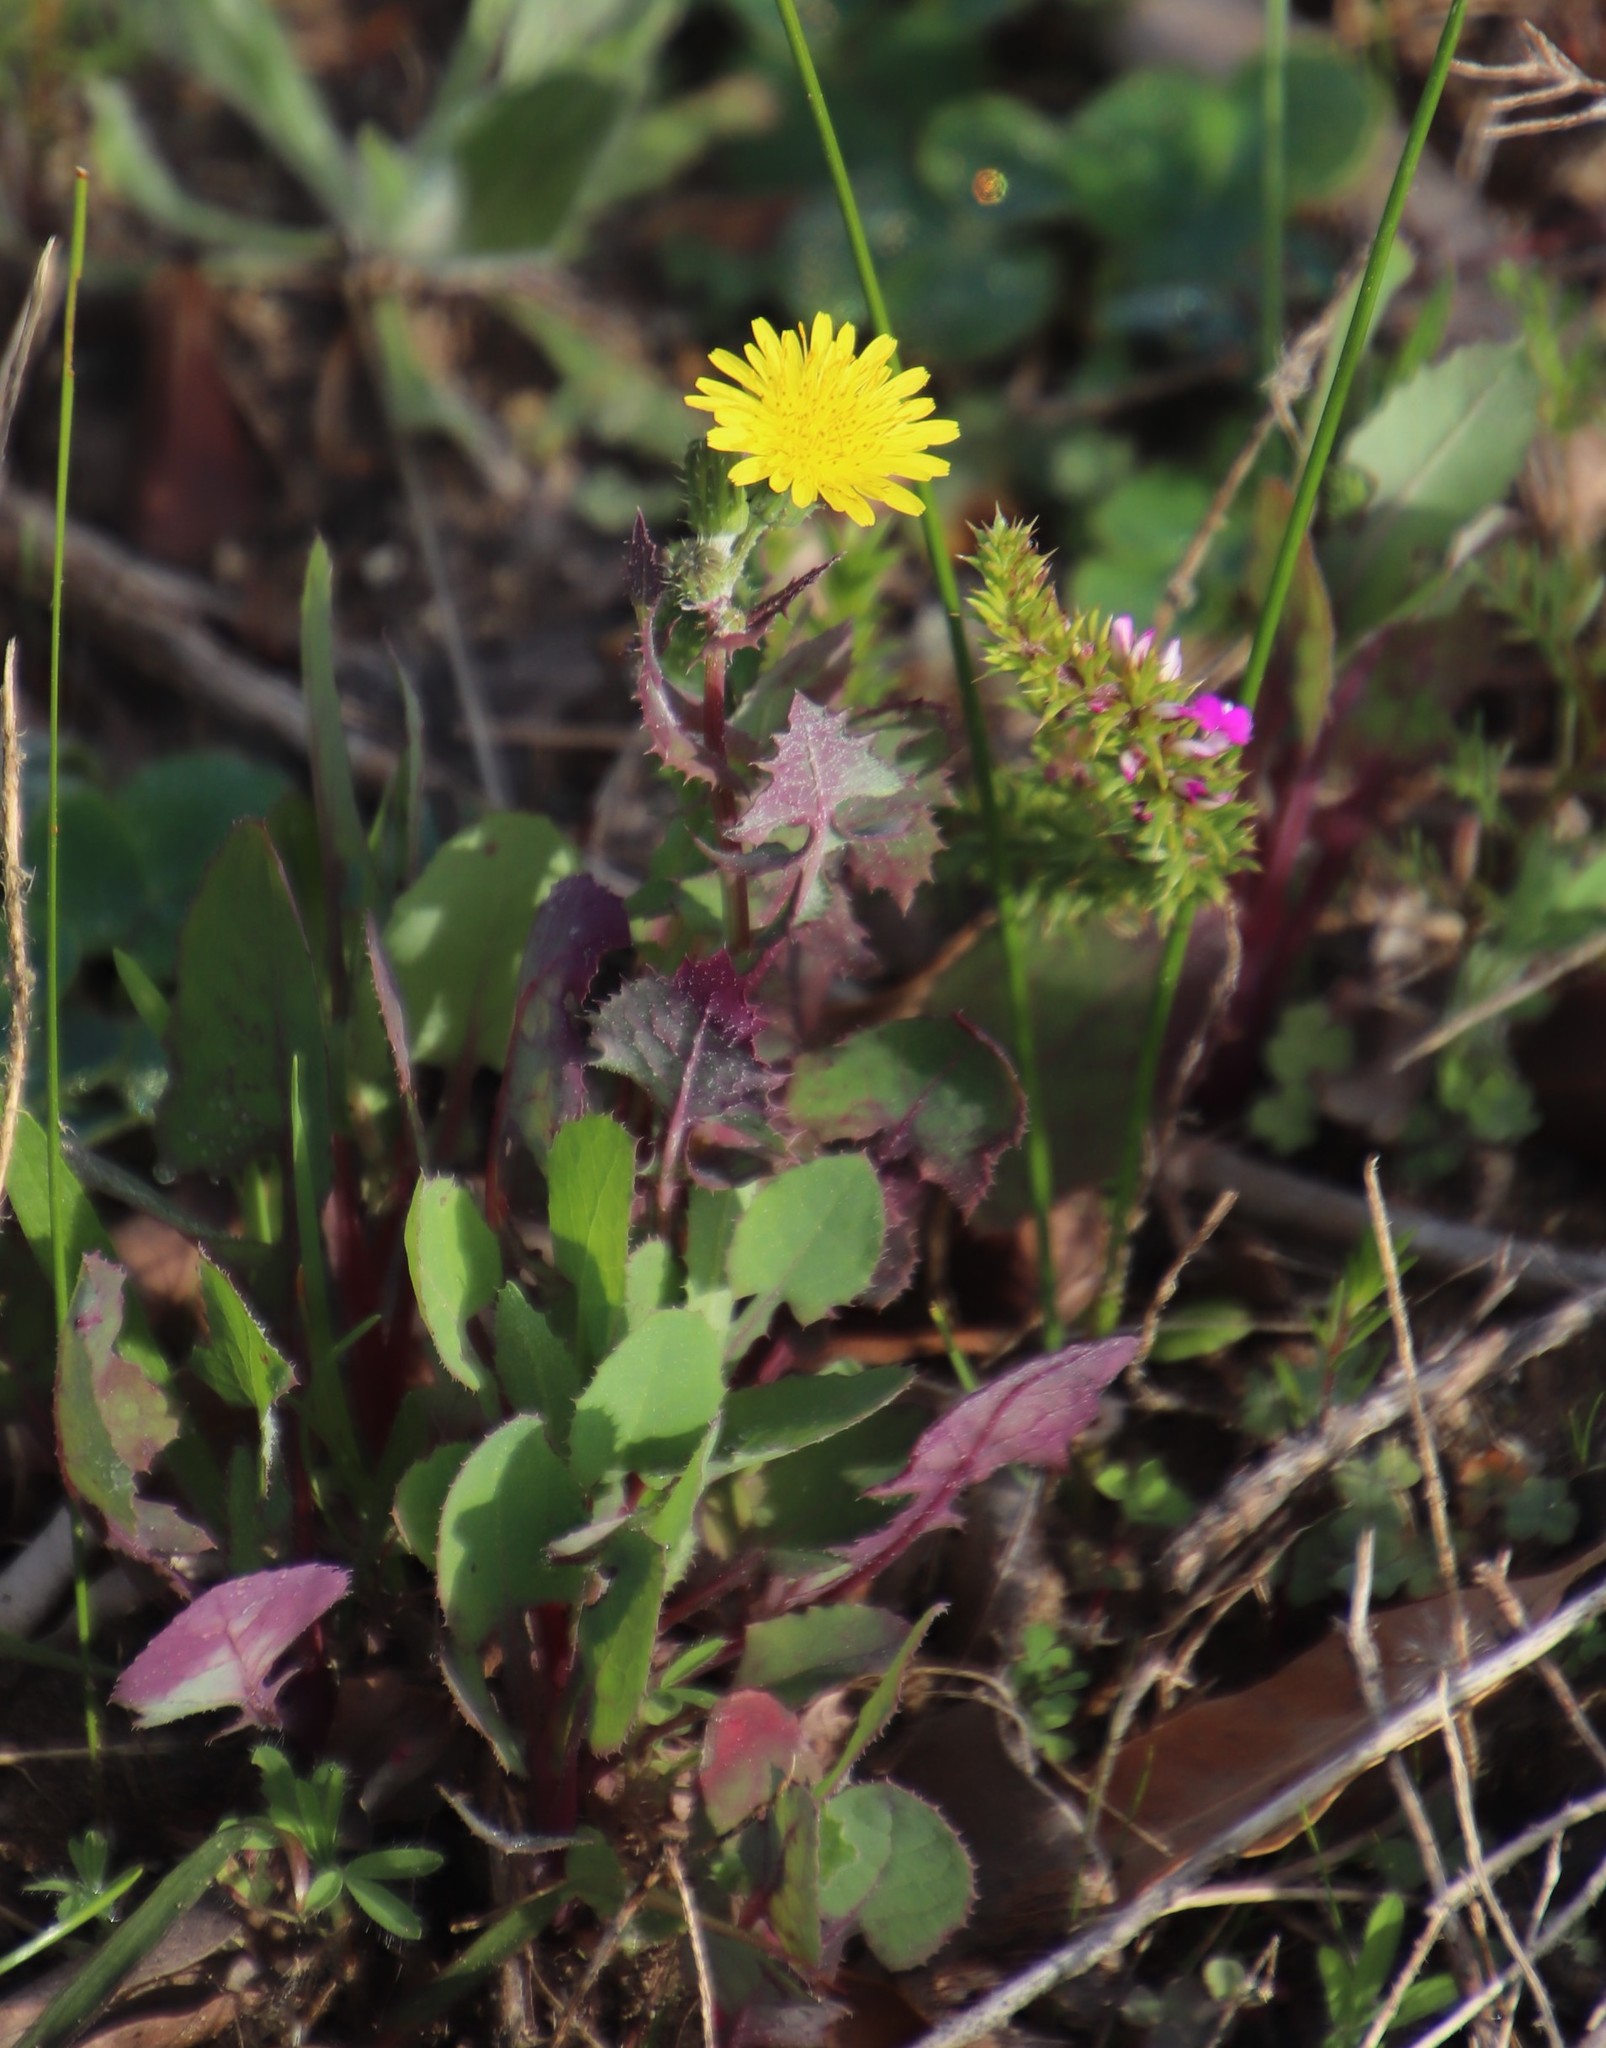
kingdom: Plantae
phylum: Tracheophyta
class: Magnoliopsida
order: Asterales
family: Asteraceae
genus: Sonchus
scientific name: Sonchus oleraceus
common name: Common sowthistle
